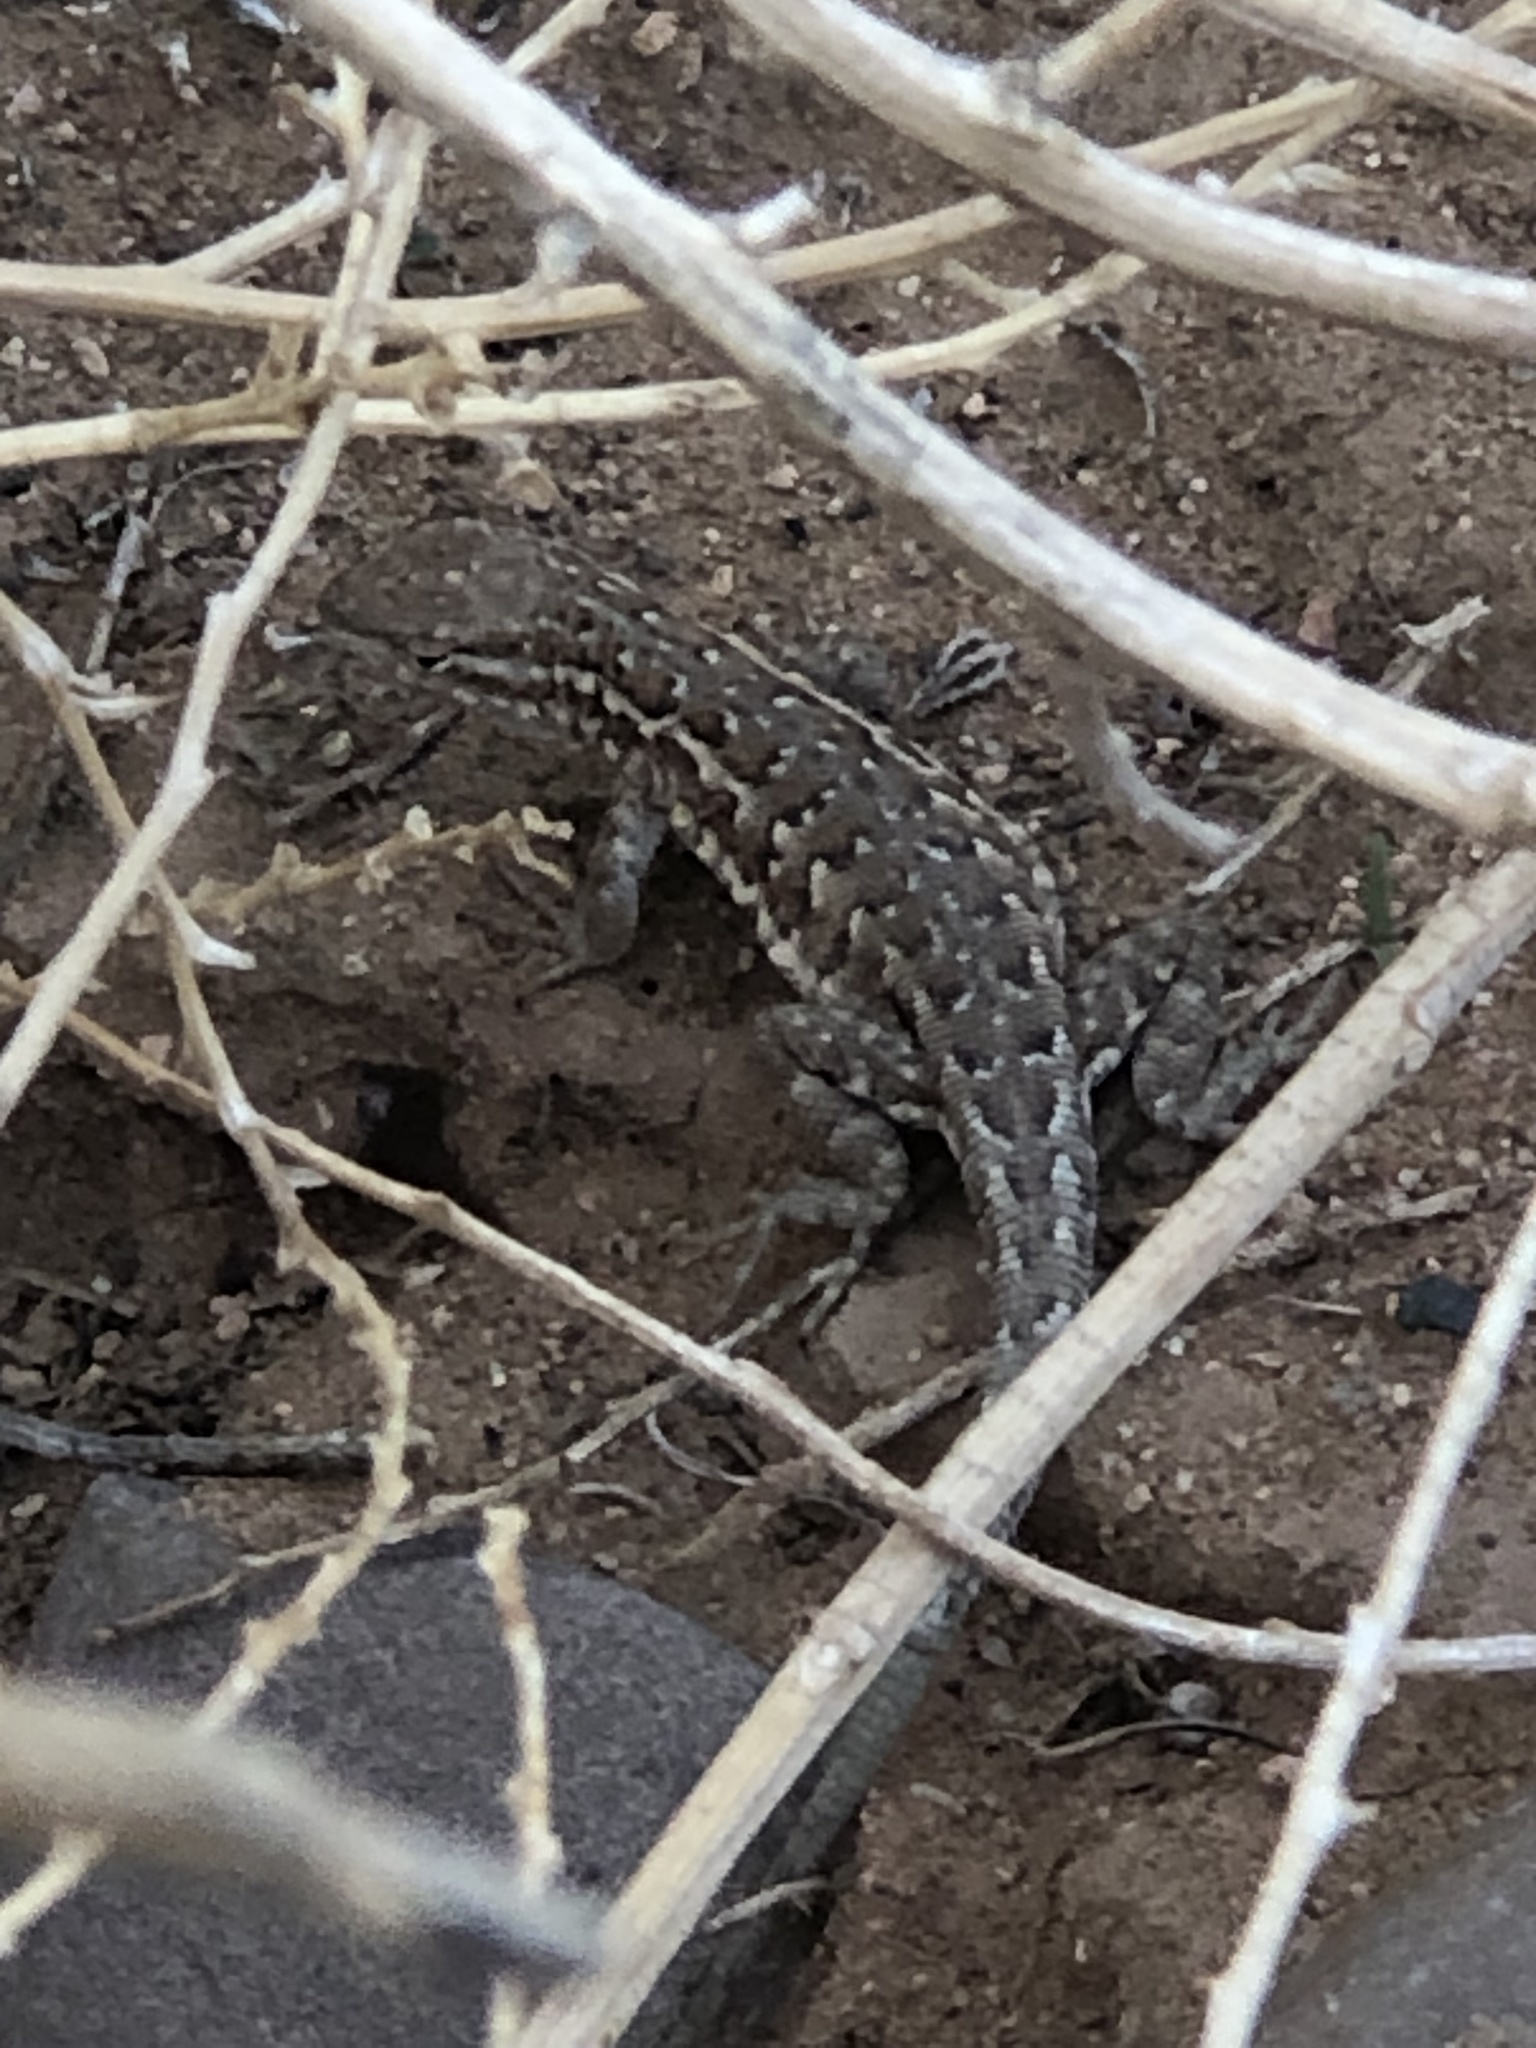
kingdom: Animalia
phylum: Chordata
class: Squamata
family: Phrynosomatidae
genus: Uta
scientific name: Uta stansburiana
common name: Side-blotched lizard
